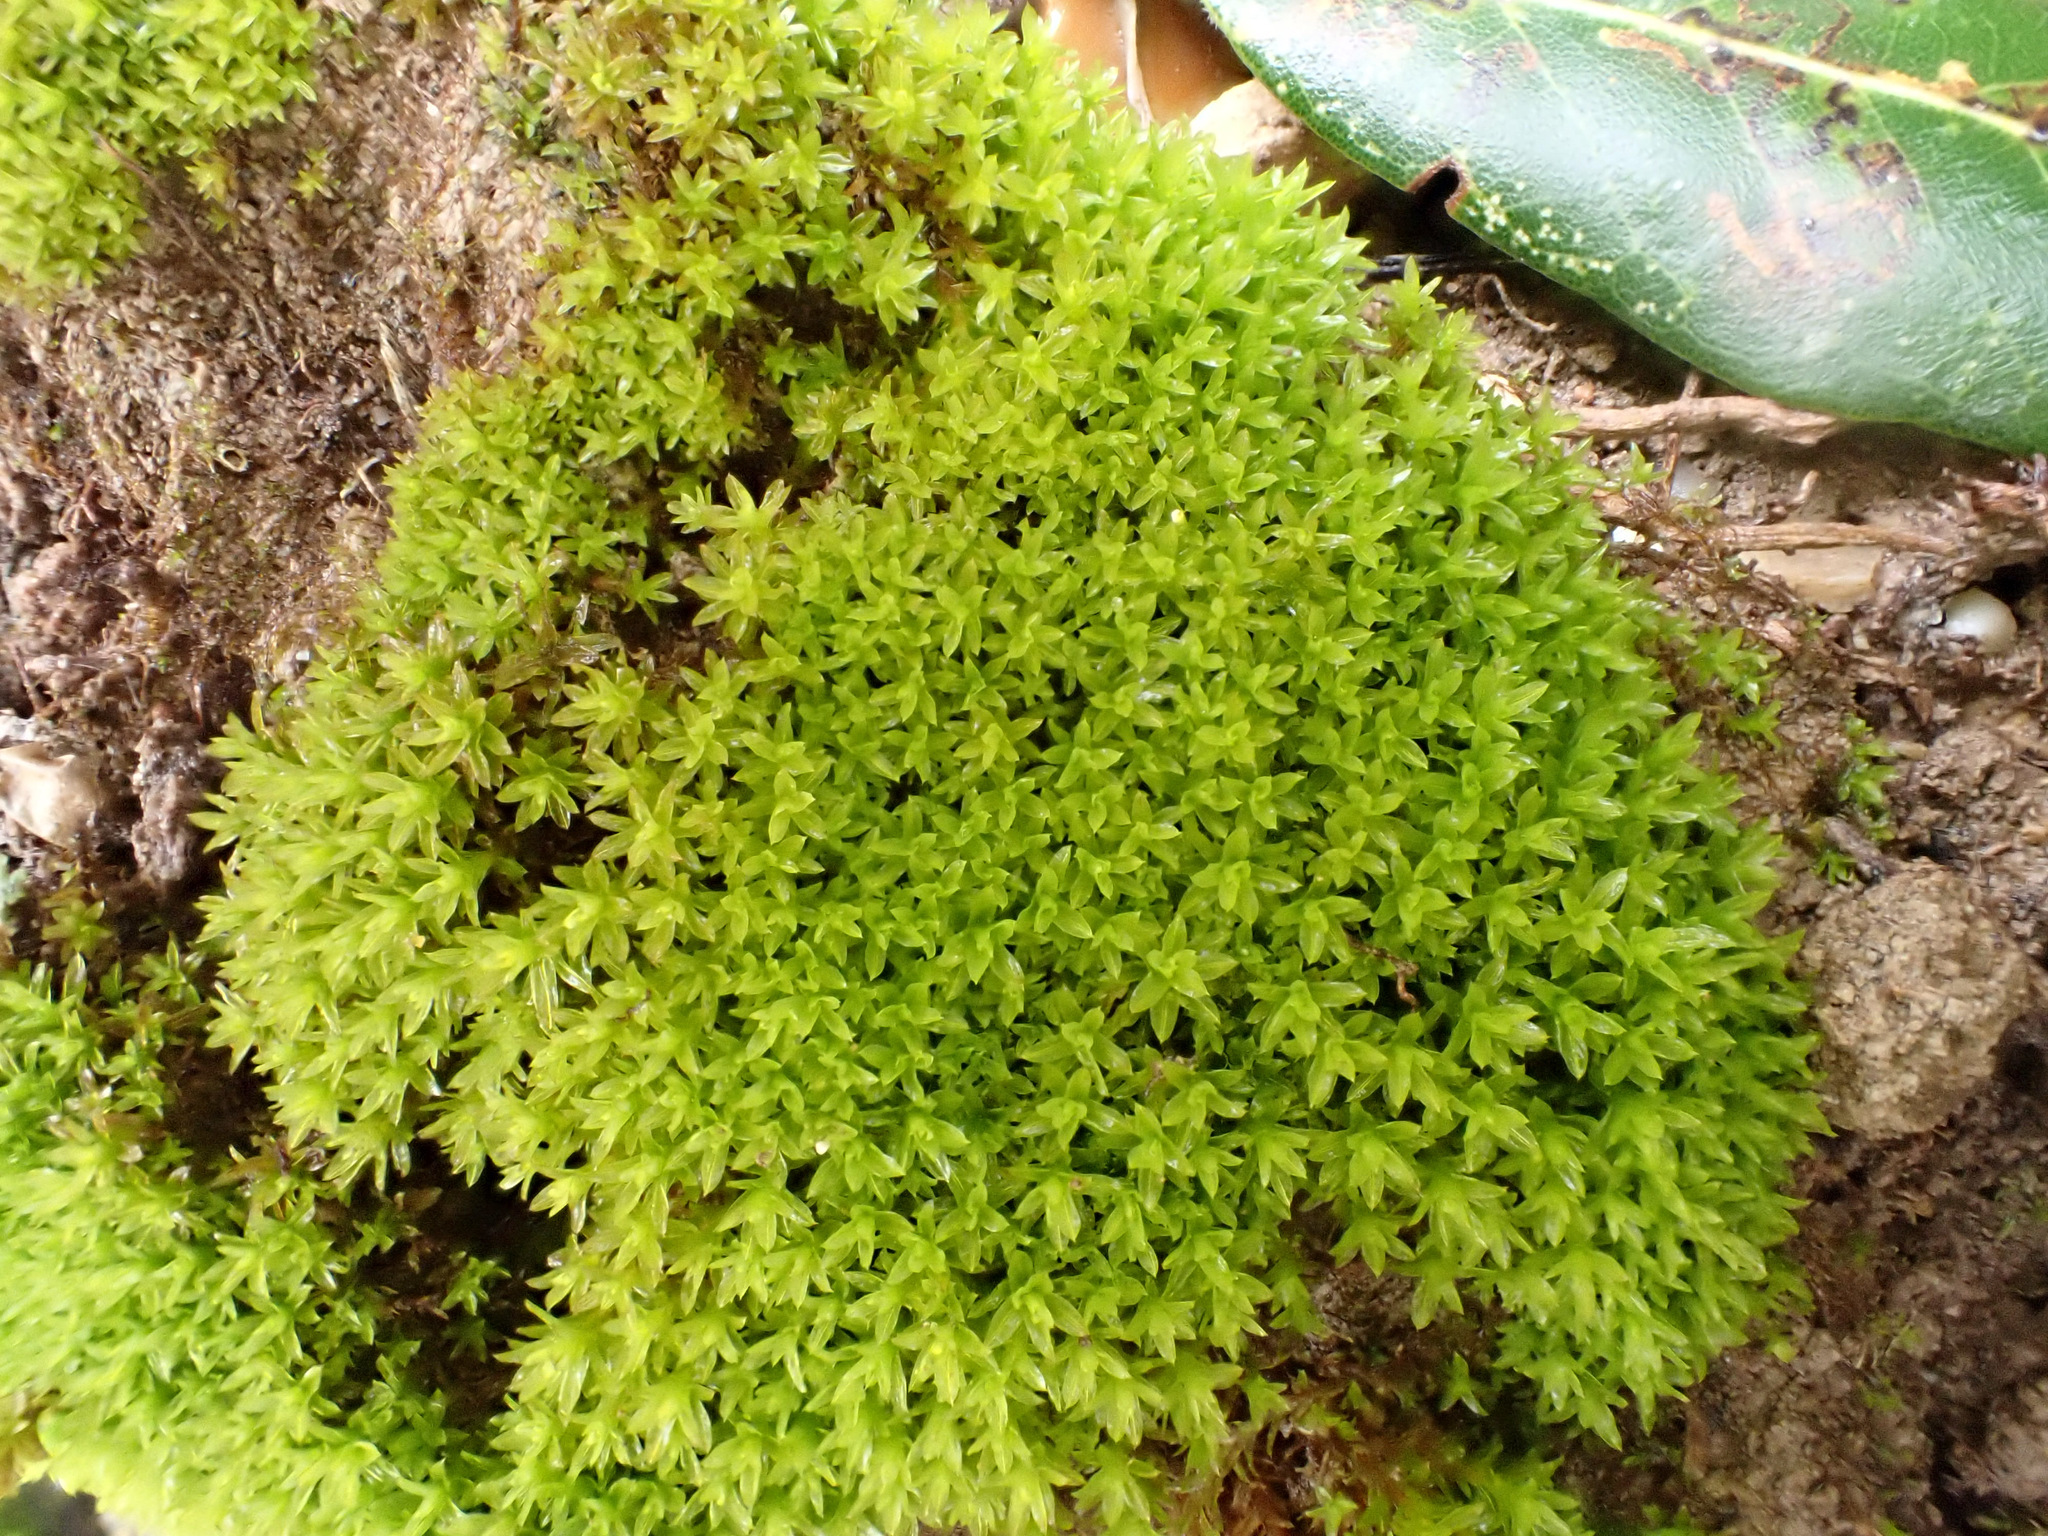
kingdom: Plantae
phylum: Bryophyta
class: Bryopsida
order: Pottiales
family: Pottiaceae
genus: Barbula
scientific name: Barbula unguiculata
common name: Prickly beard moss
